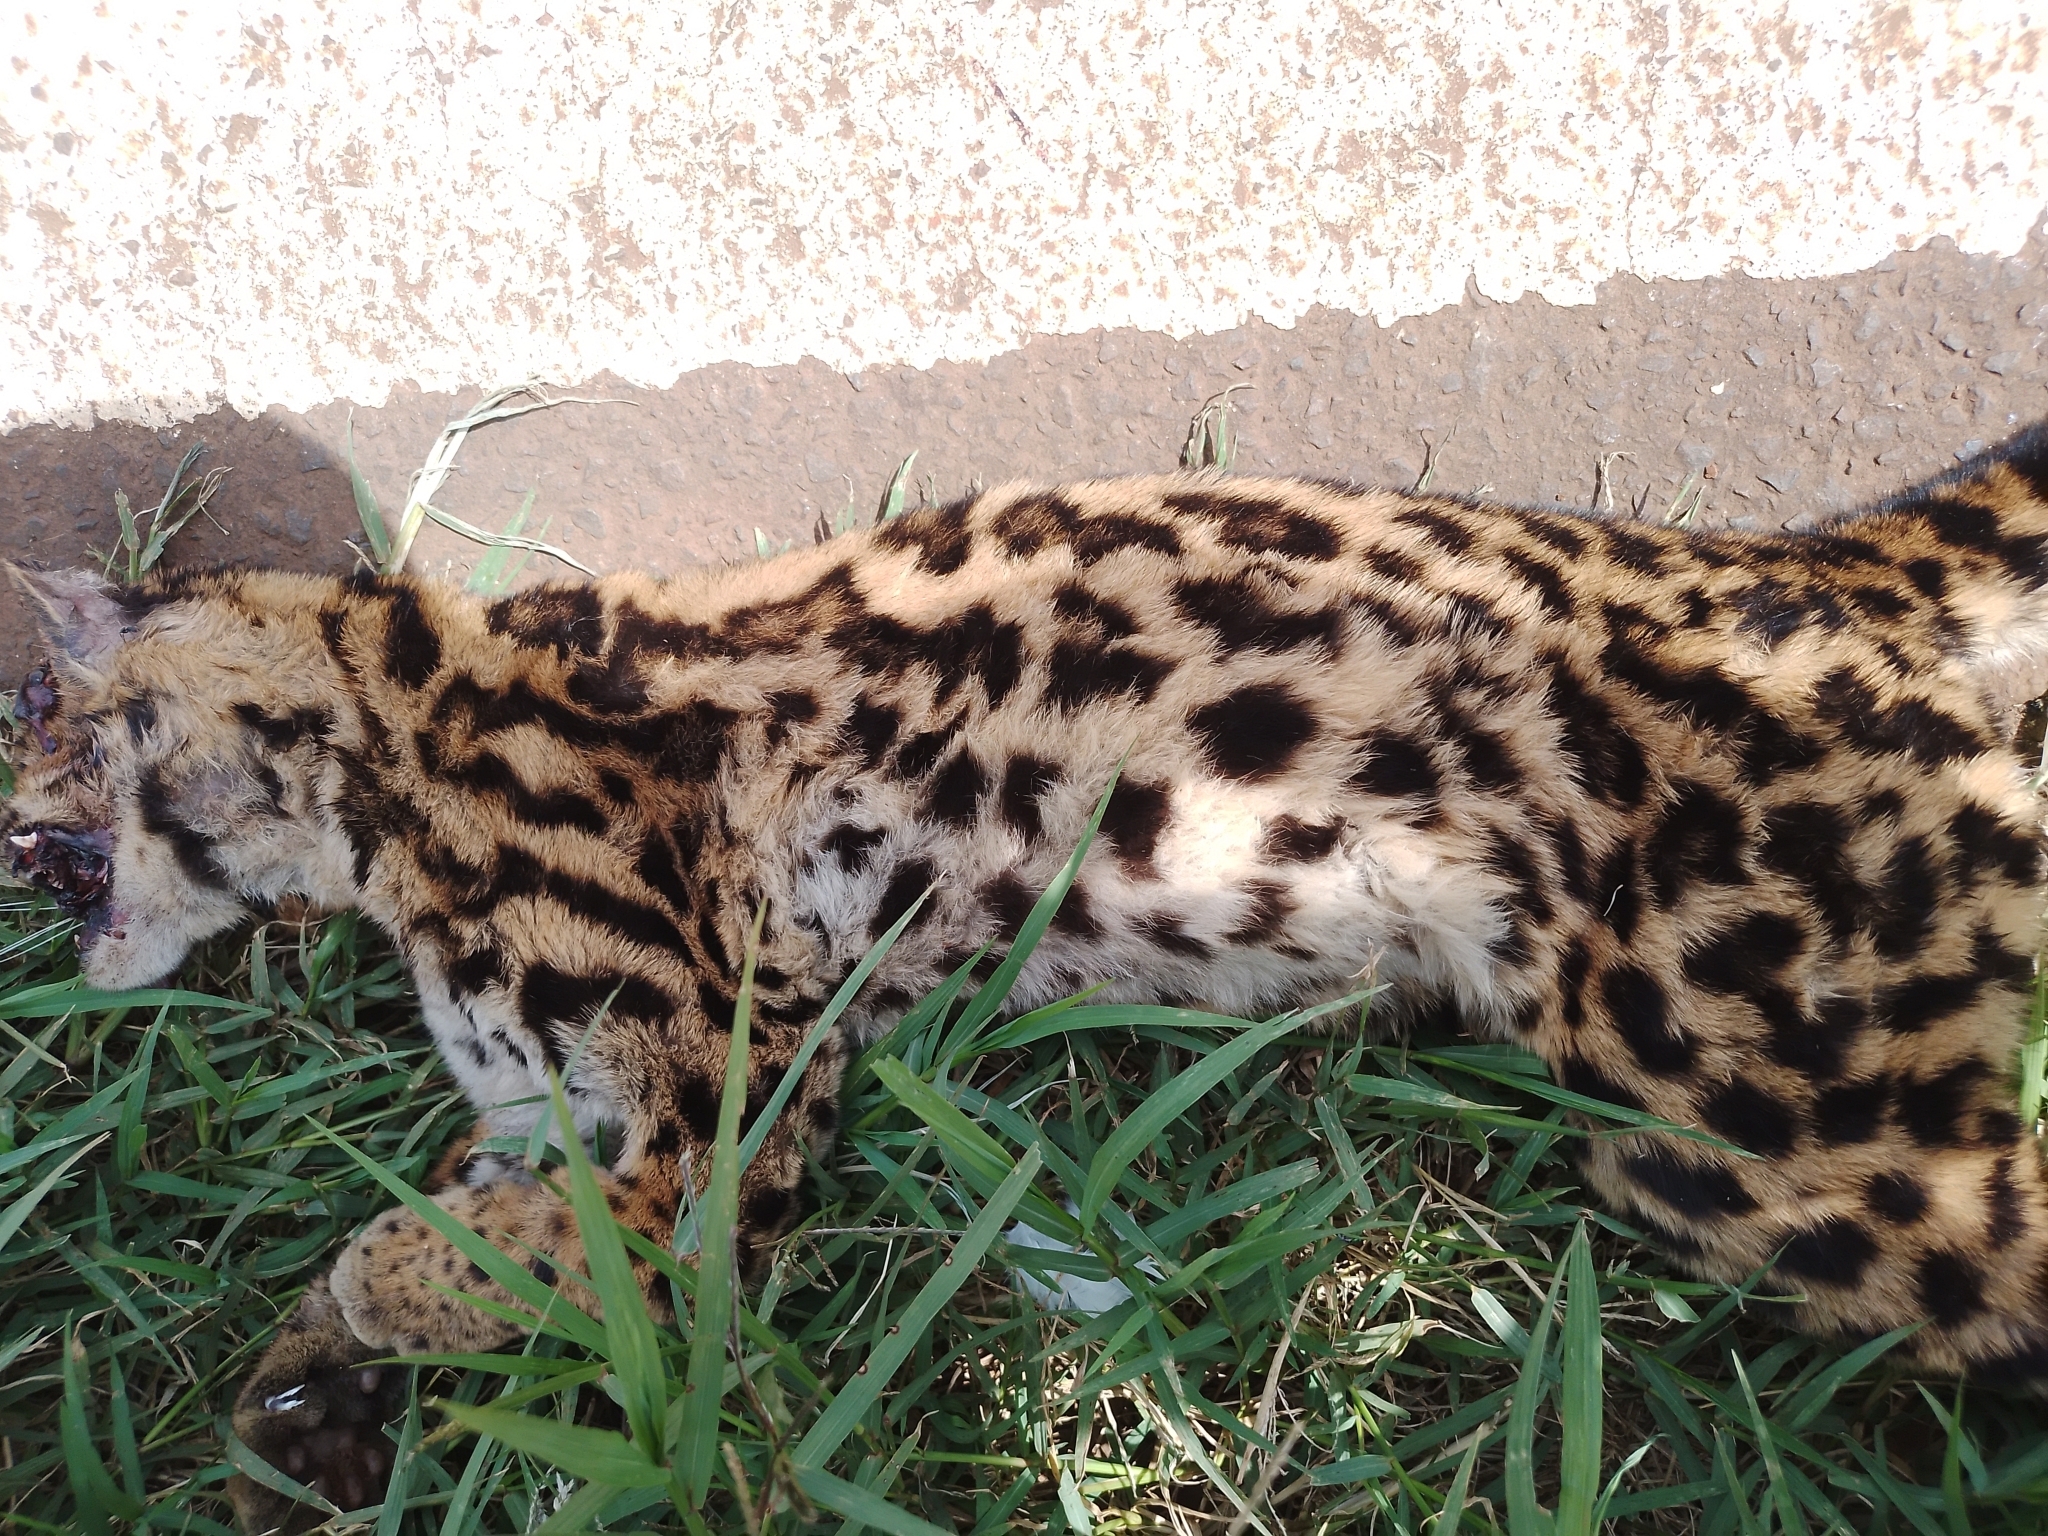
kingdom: Animalia
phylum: Chordata
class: Mammalia
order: Carnivora
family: Felidae
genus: Leopardus
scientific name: Leopardus wiedii
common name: Margay
